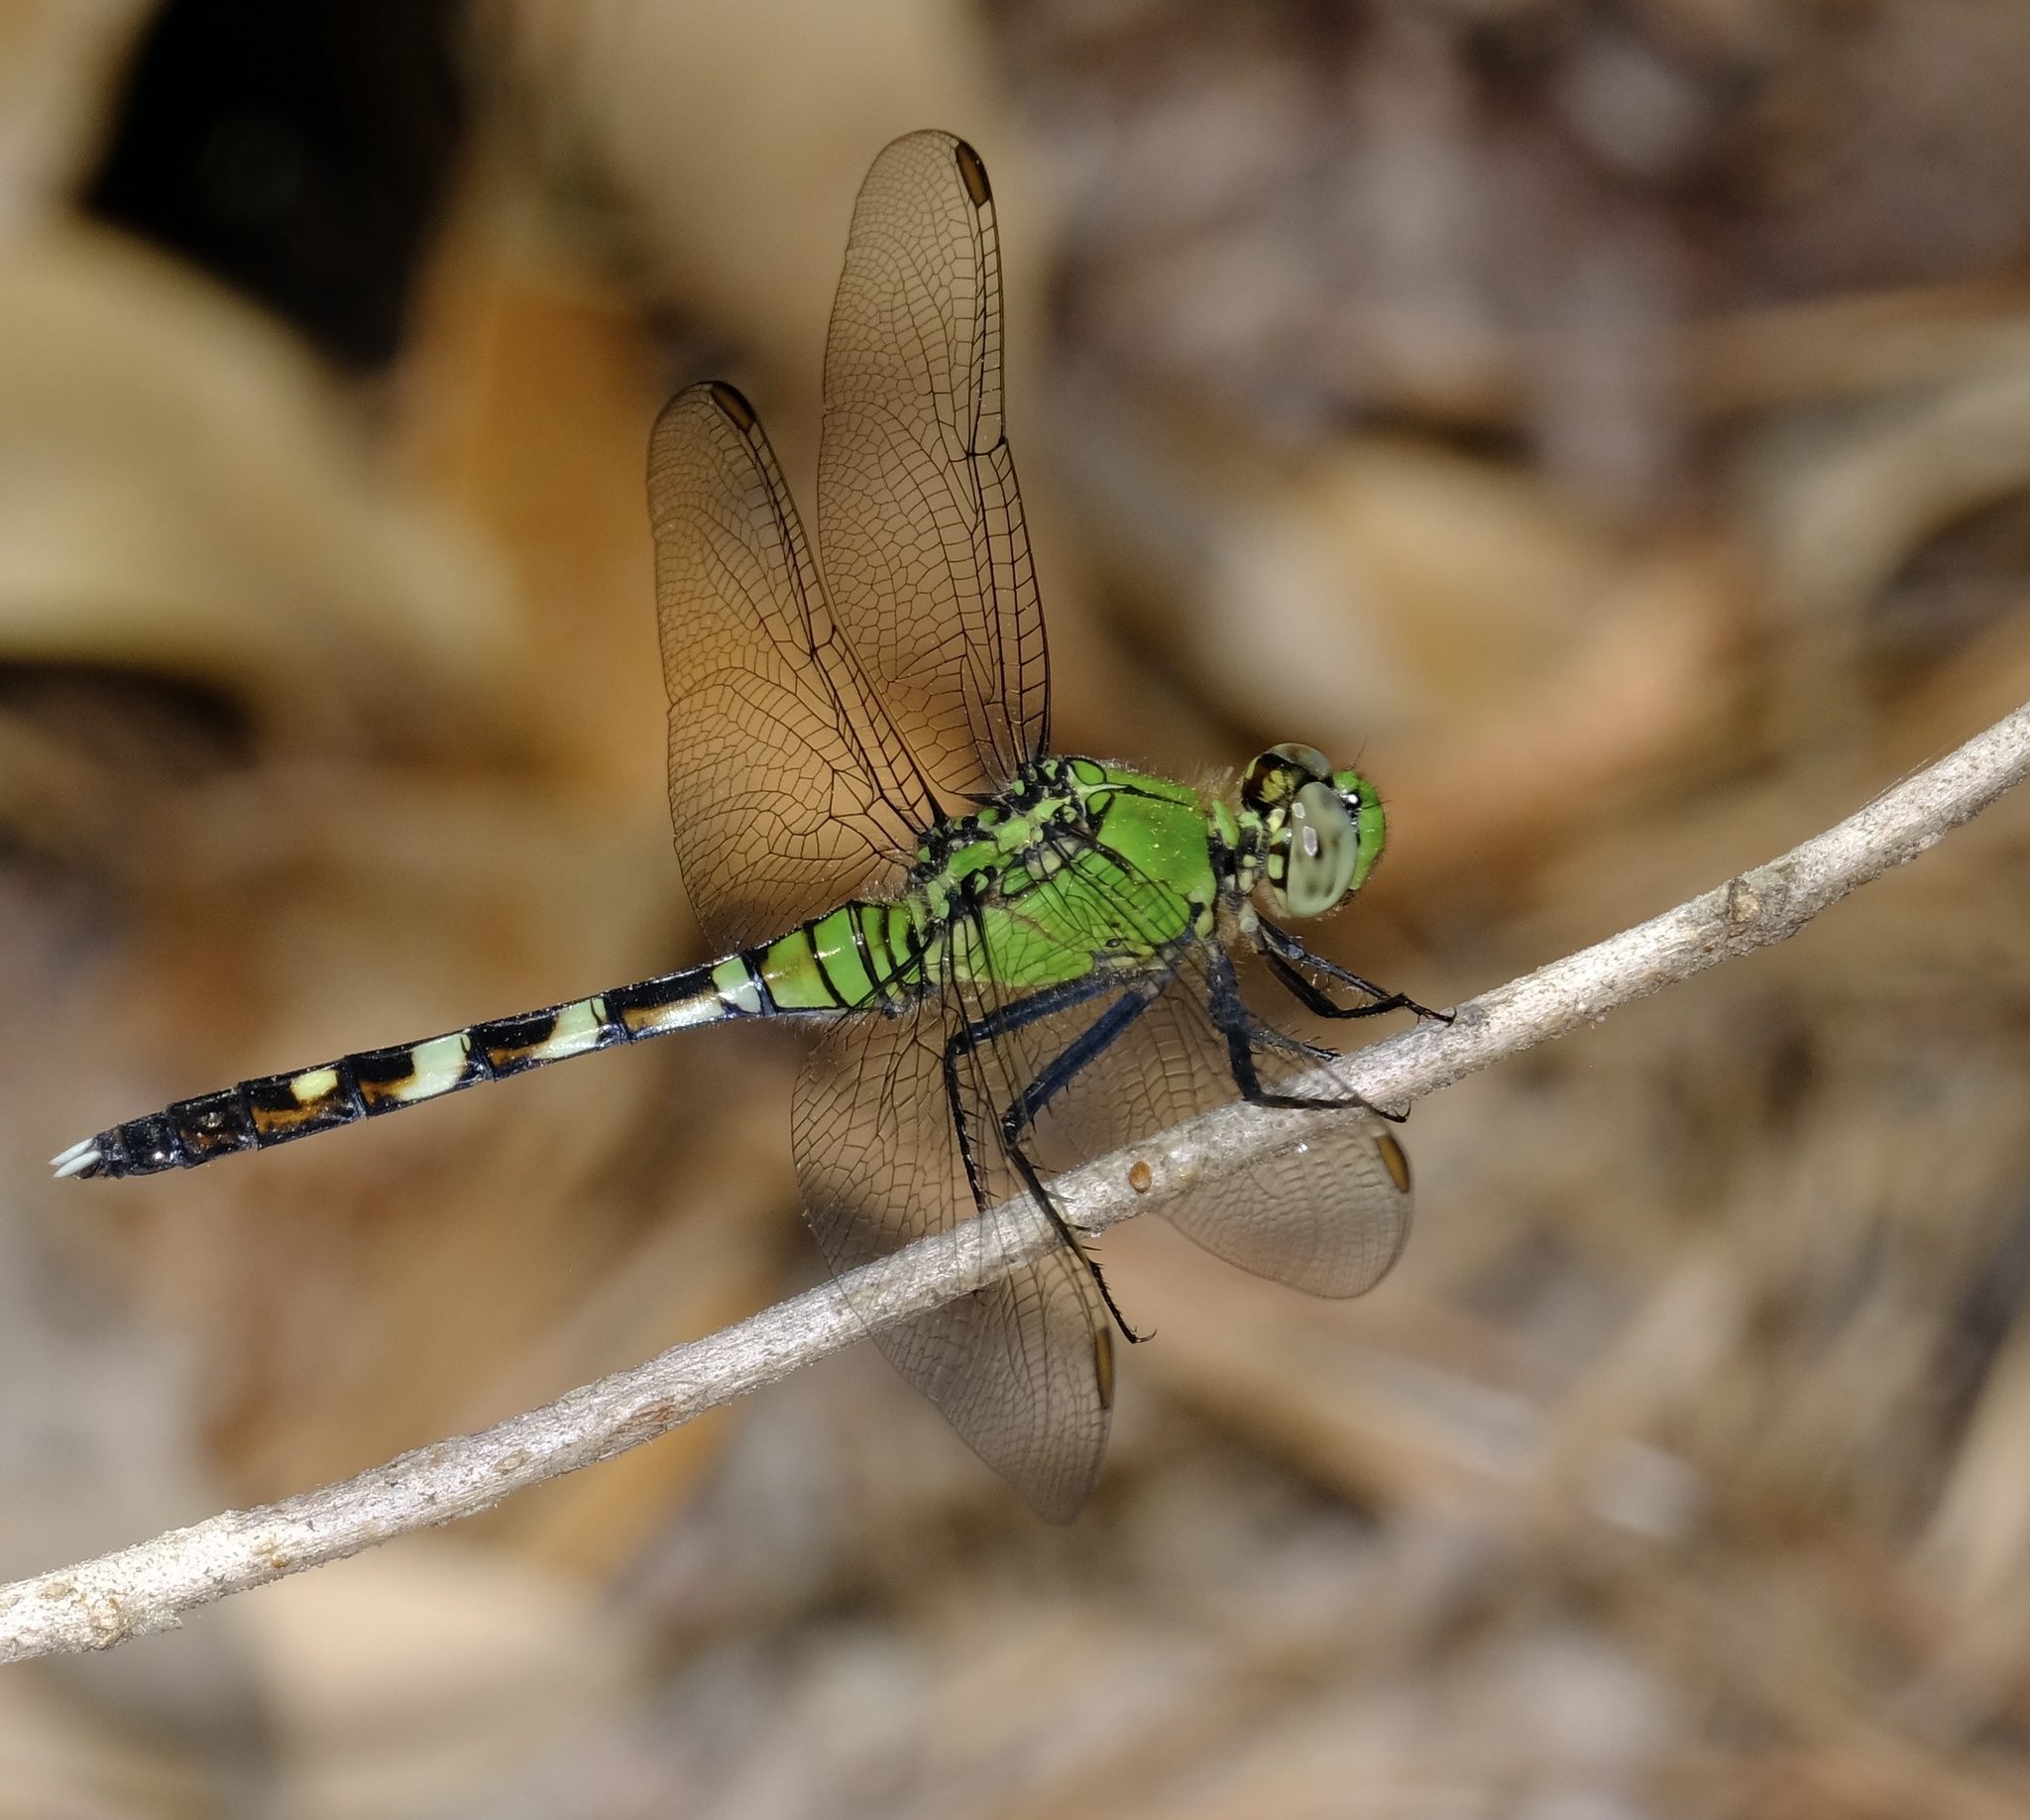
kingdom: Animalia
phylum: Arthropoda
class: Insecta
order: Odonata
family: Libellulidae
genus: Erythemis
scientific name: Erythemis simplicicollis
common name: Eastern pondhawk
